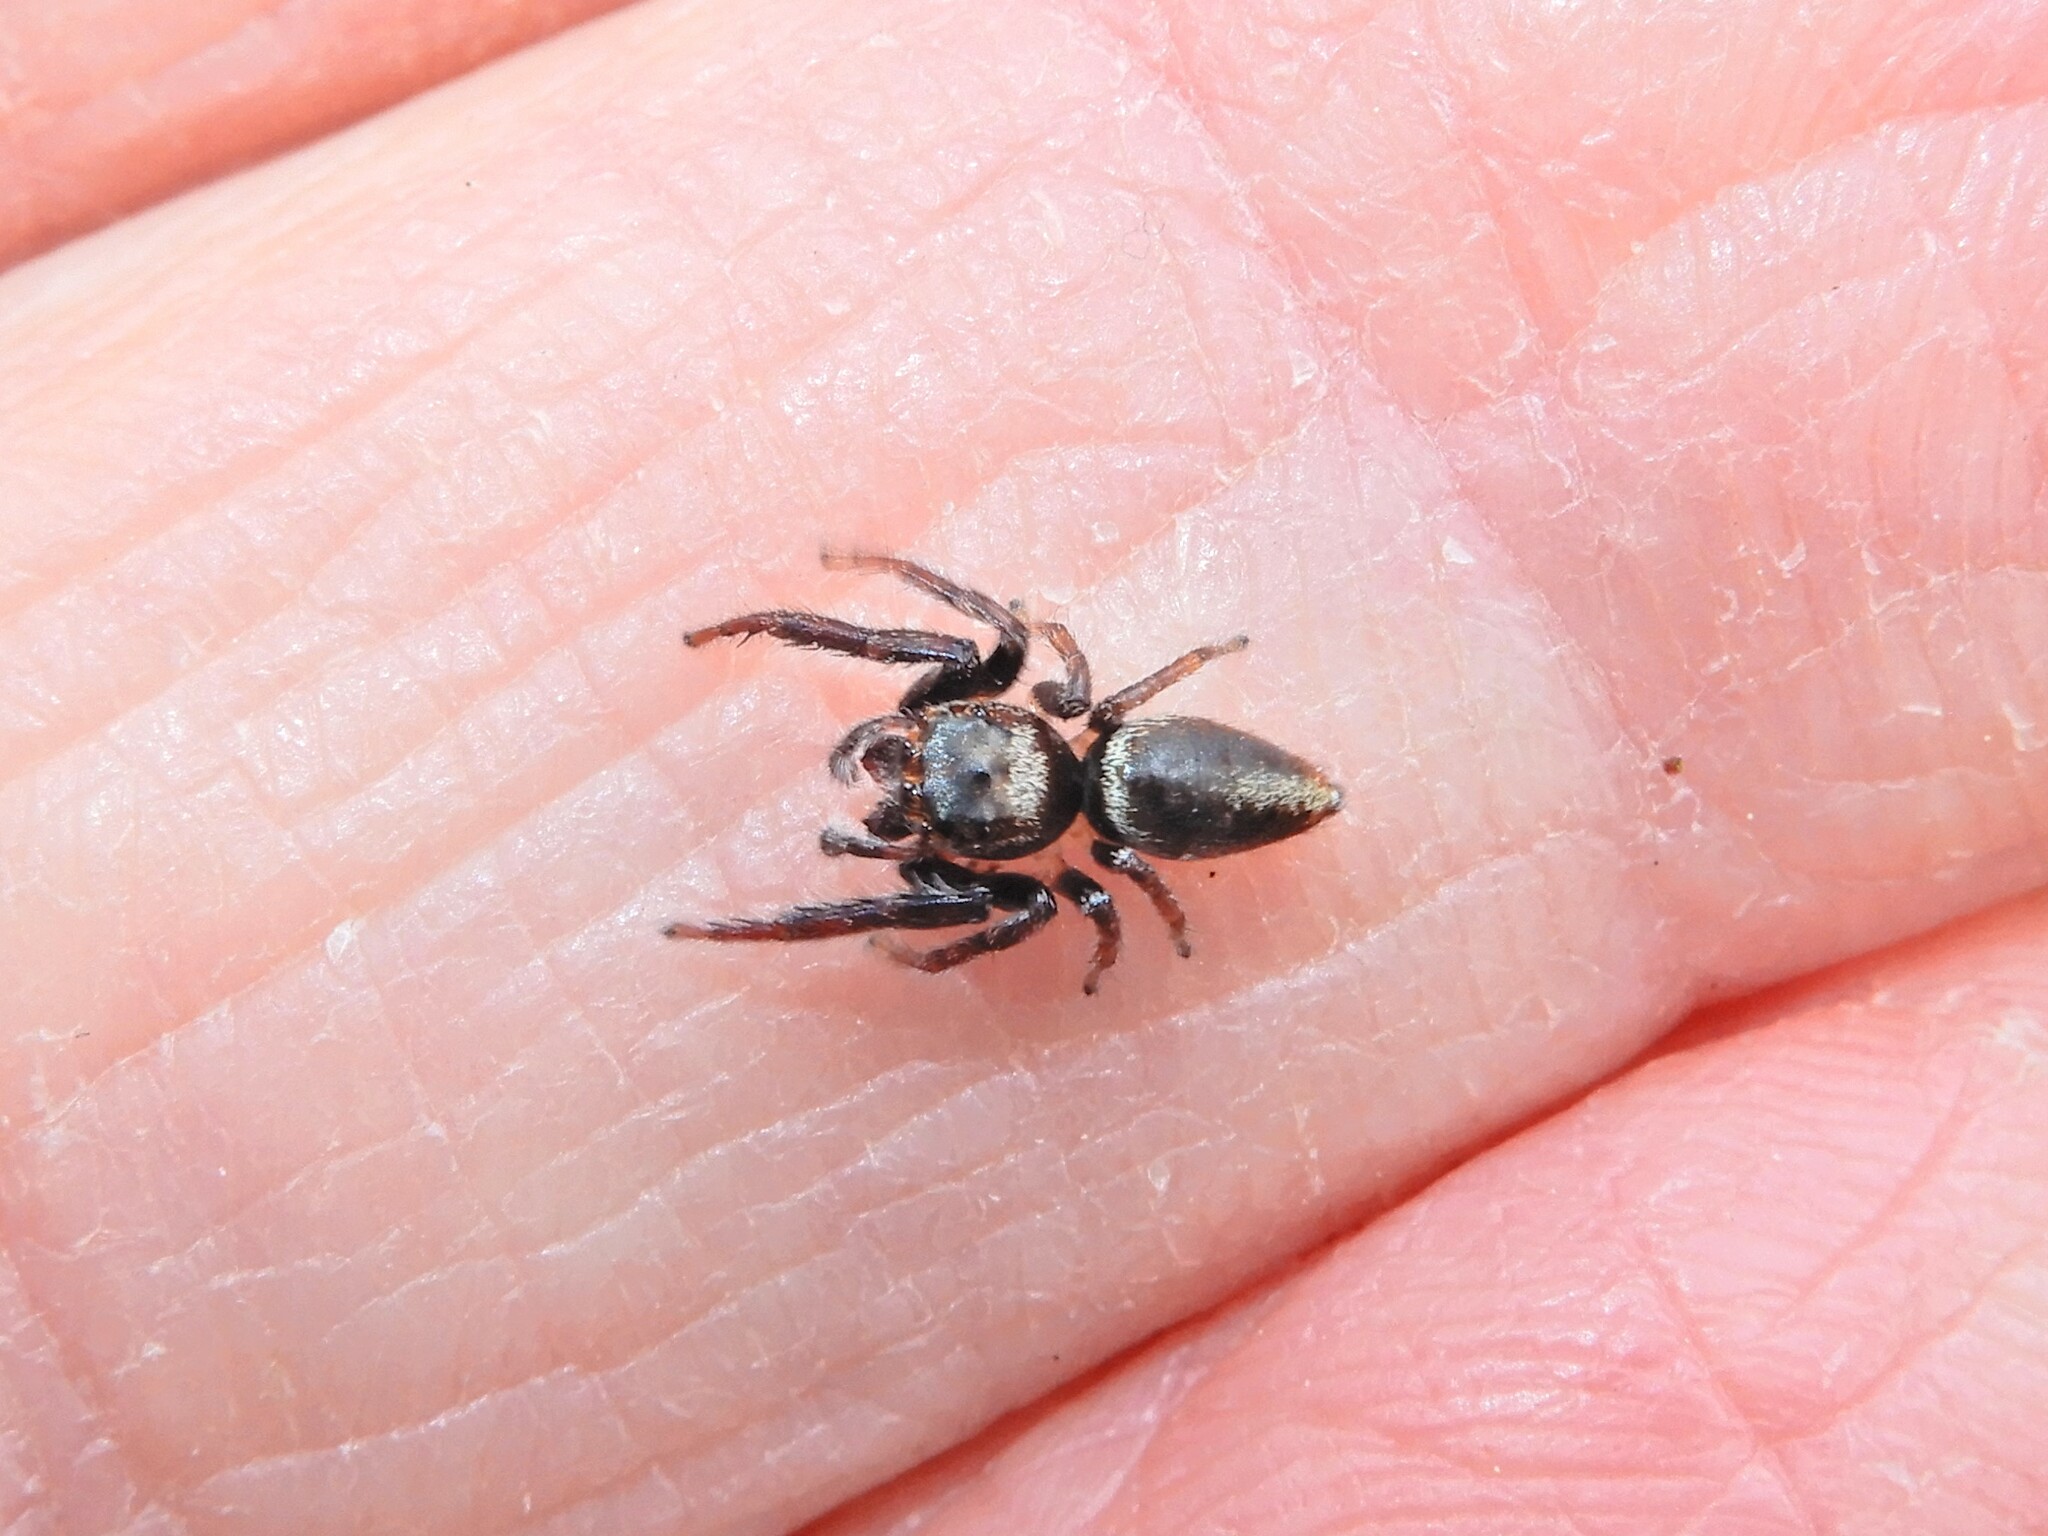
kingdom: Animalia
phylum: Arthropoda
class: Arachnida
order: Araneae
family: Salticidae
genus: Opisthoncus
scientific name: Opisthoncus polyphemus
